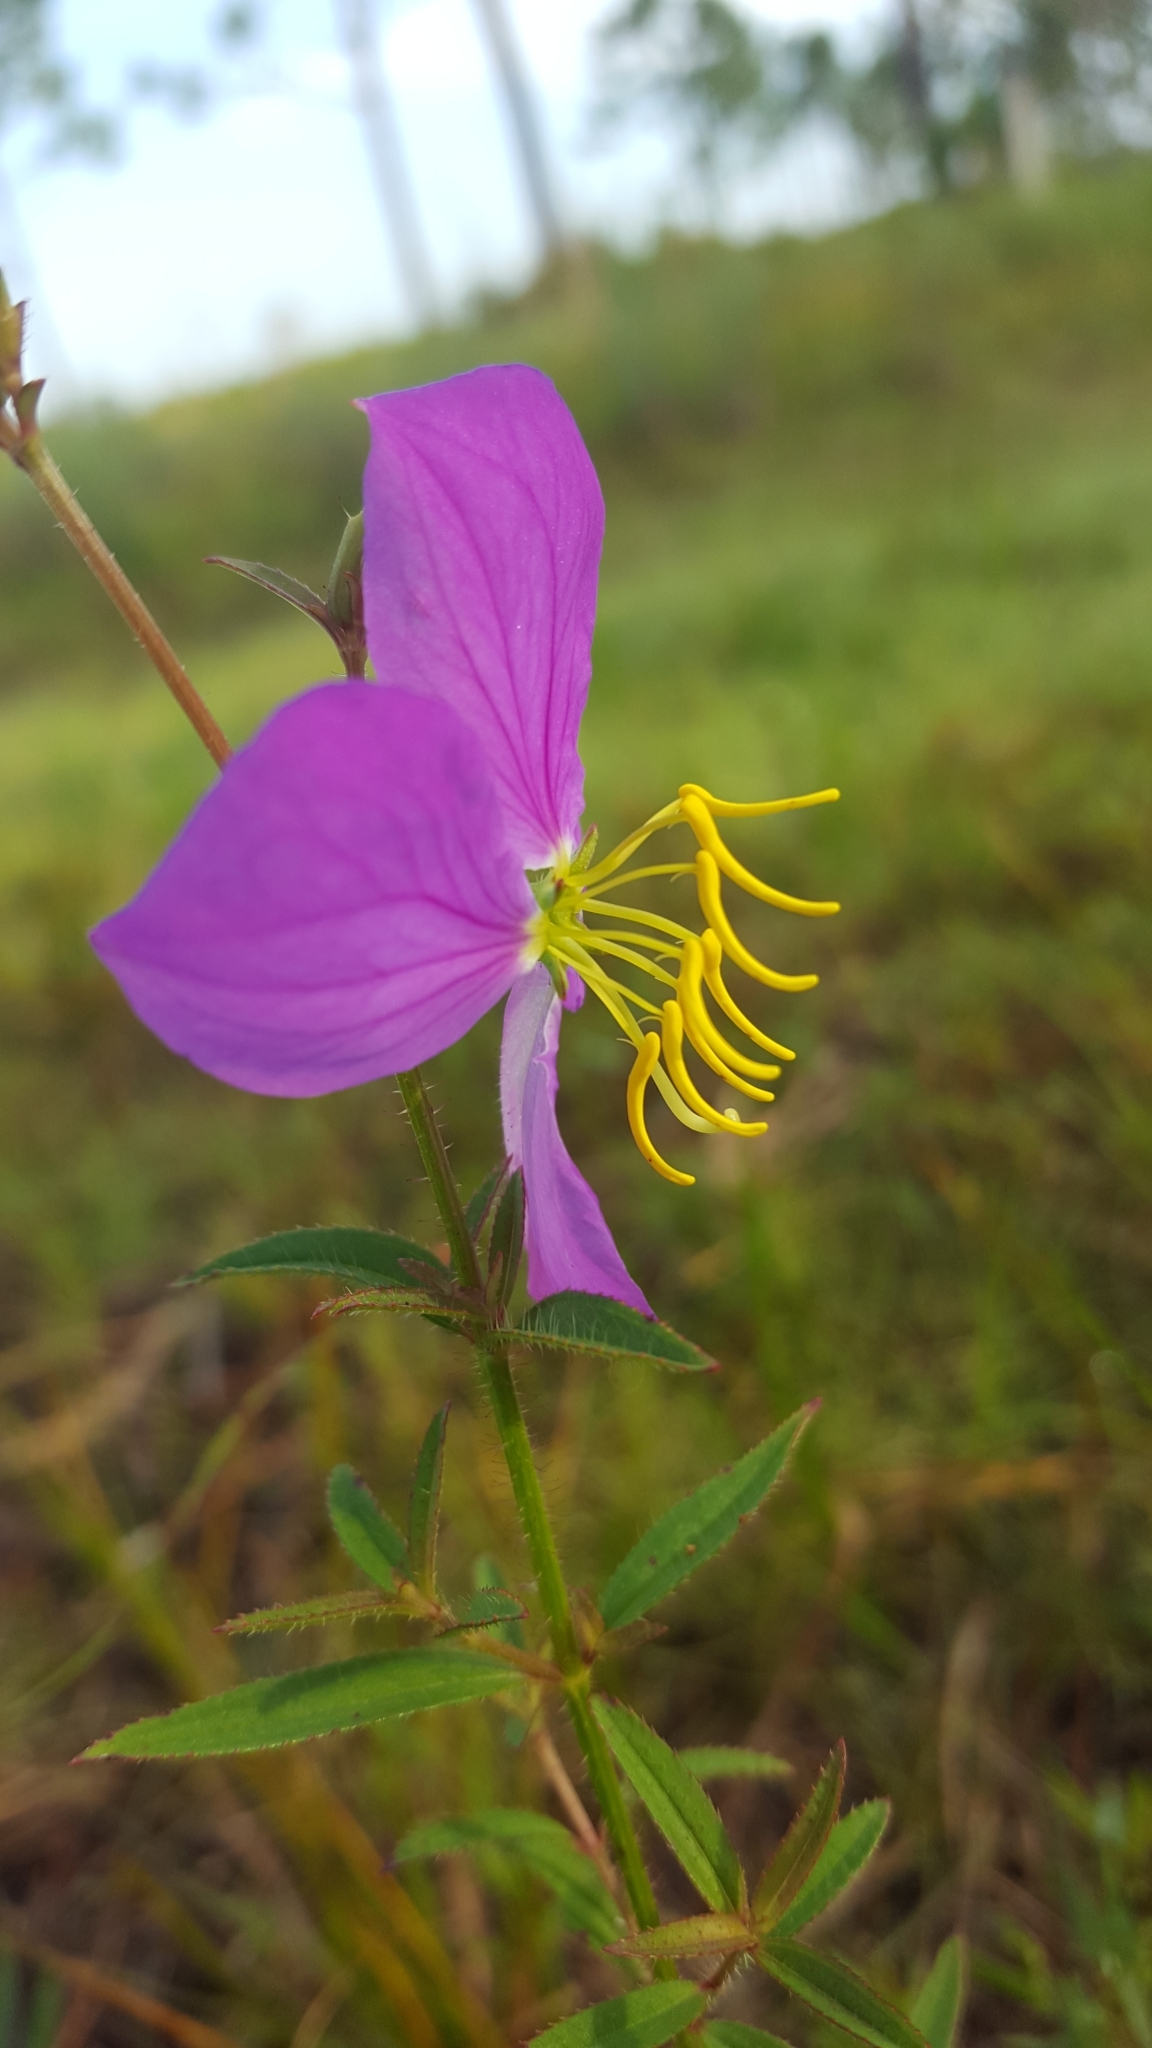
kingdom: Plantae
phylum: Tracheophyta
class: Magnoliopsida
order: Myrtales
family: Melastomataceae
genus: Rhexia
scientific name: Rhexia mariana
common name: Dull meadow-pitcher
